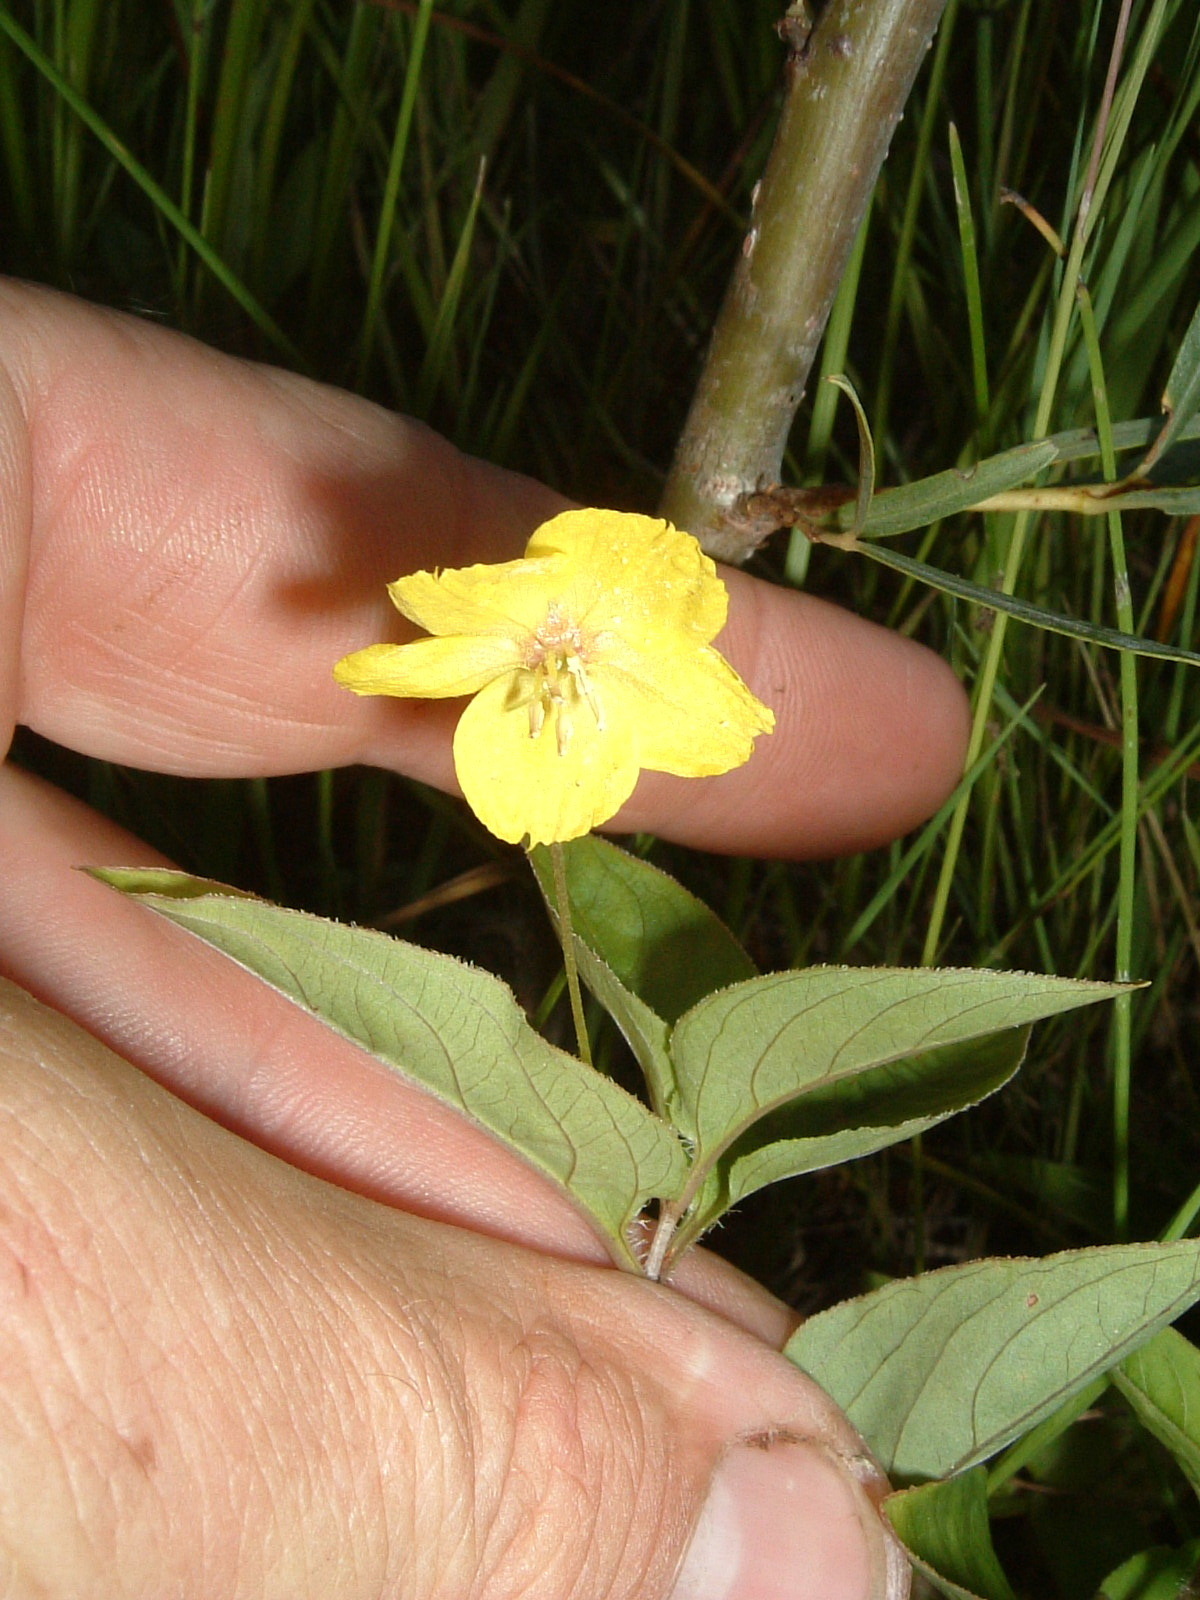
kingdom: Plantae
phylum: Tracheophyta
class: Magnoliopsida
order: Ericales
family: Primulaceae
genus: Lysimachia
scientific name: Lysimachia ciliata
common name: Fringed loosestrife
